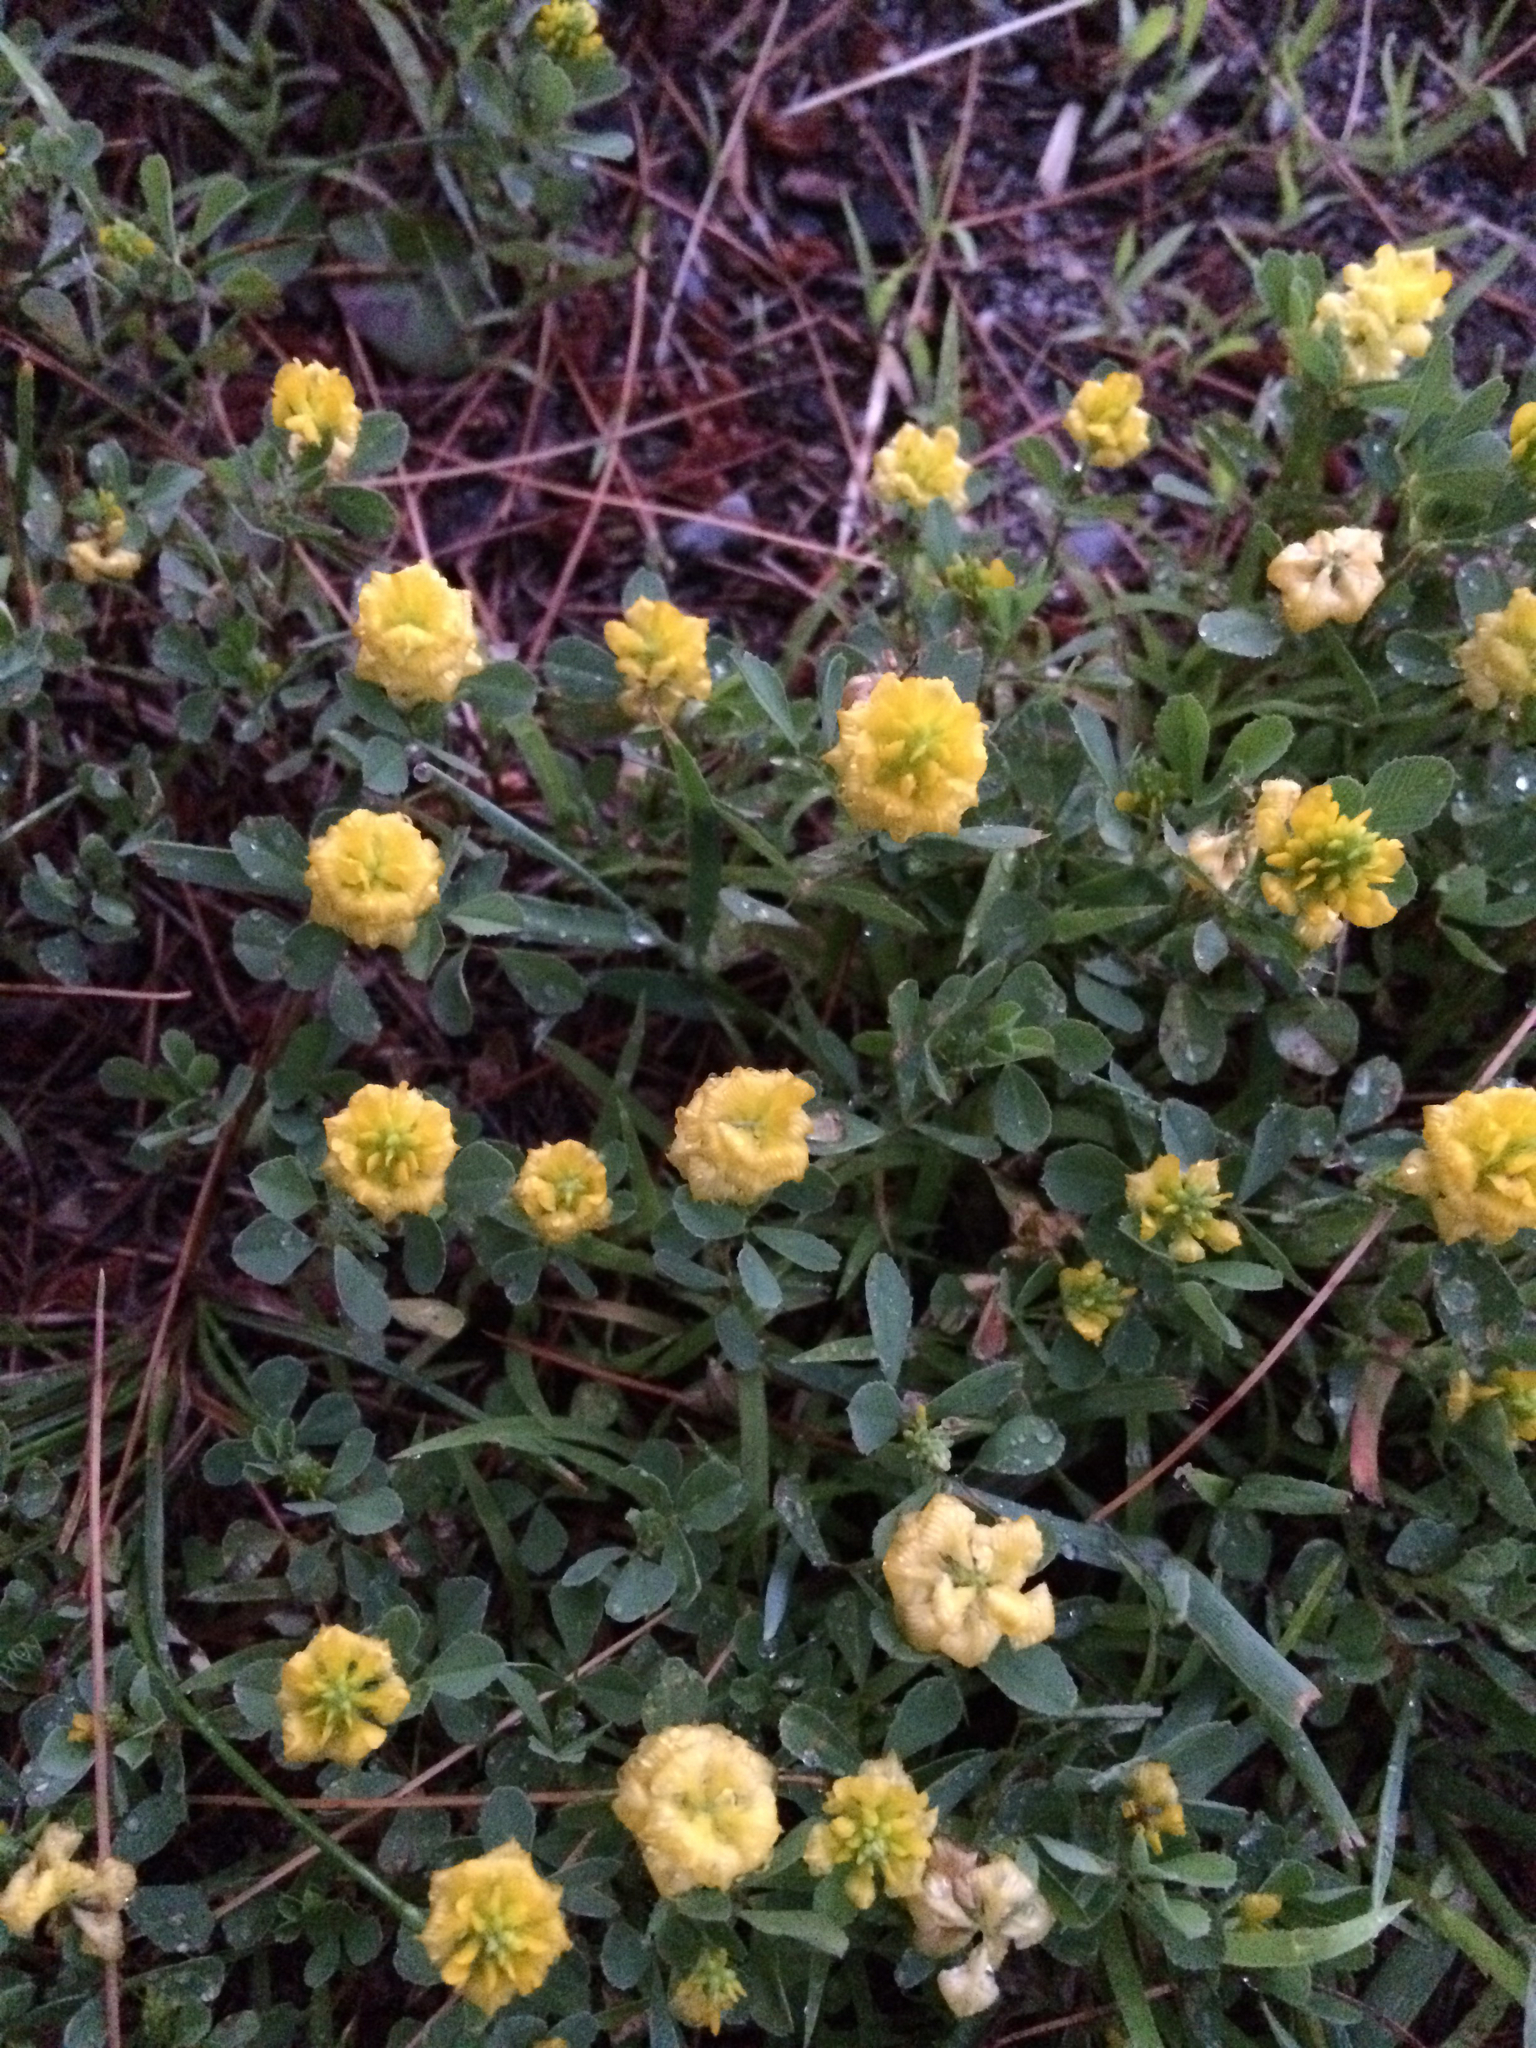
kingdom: Plantae
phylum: Tracheophyta
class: Magnoliopsida
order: Fabales
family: Fabaceae
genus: Trifolium
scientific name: Trifolium campestre
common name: Field clover
